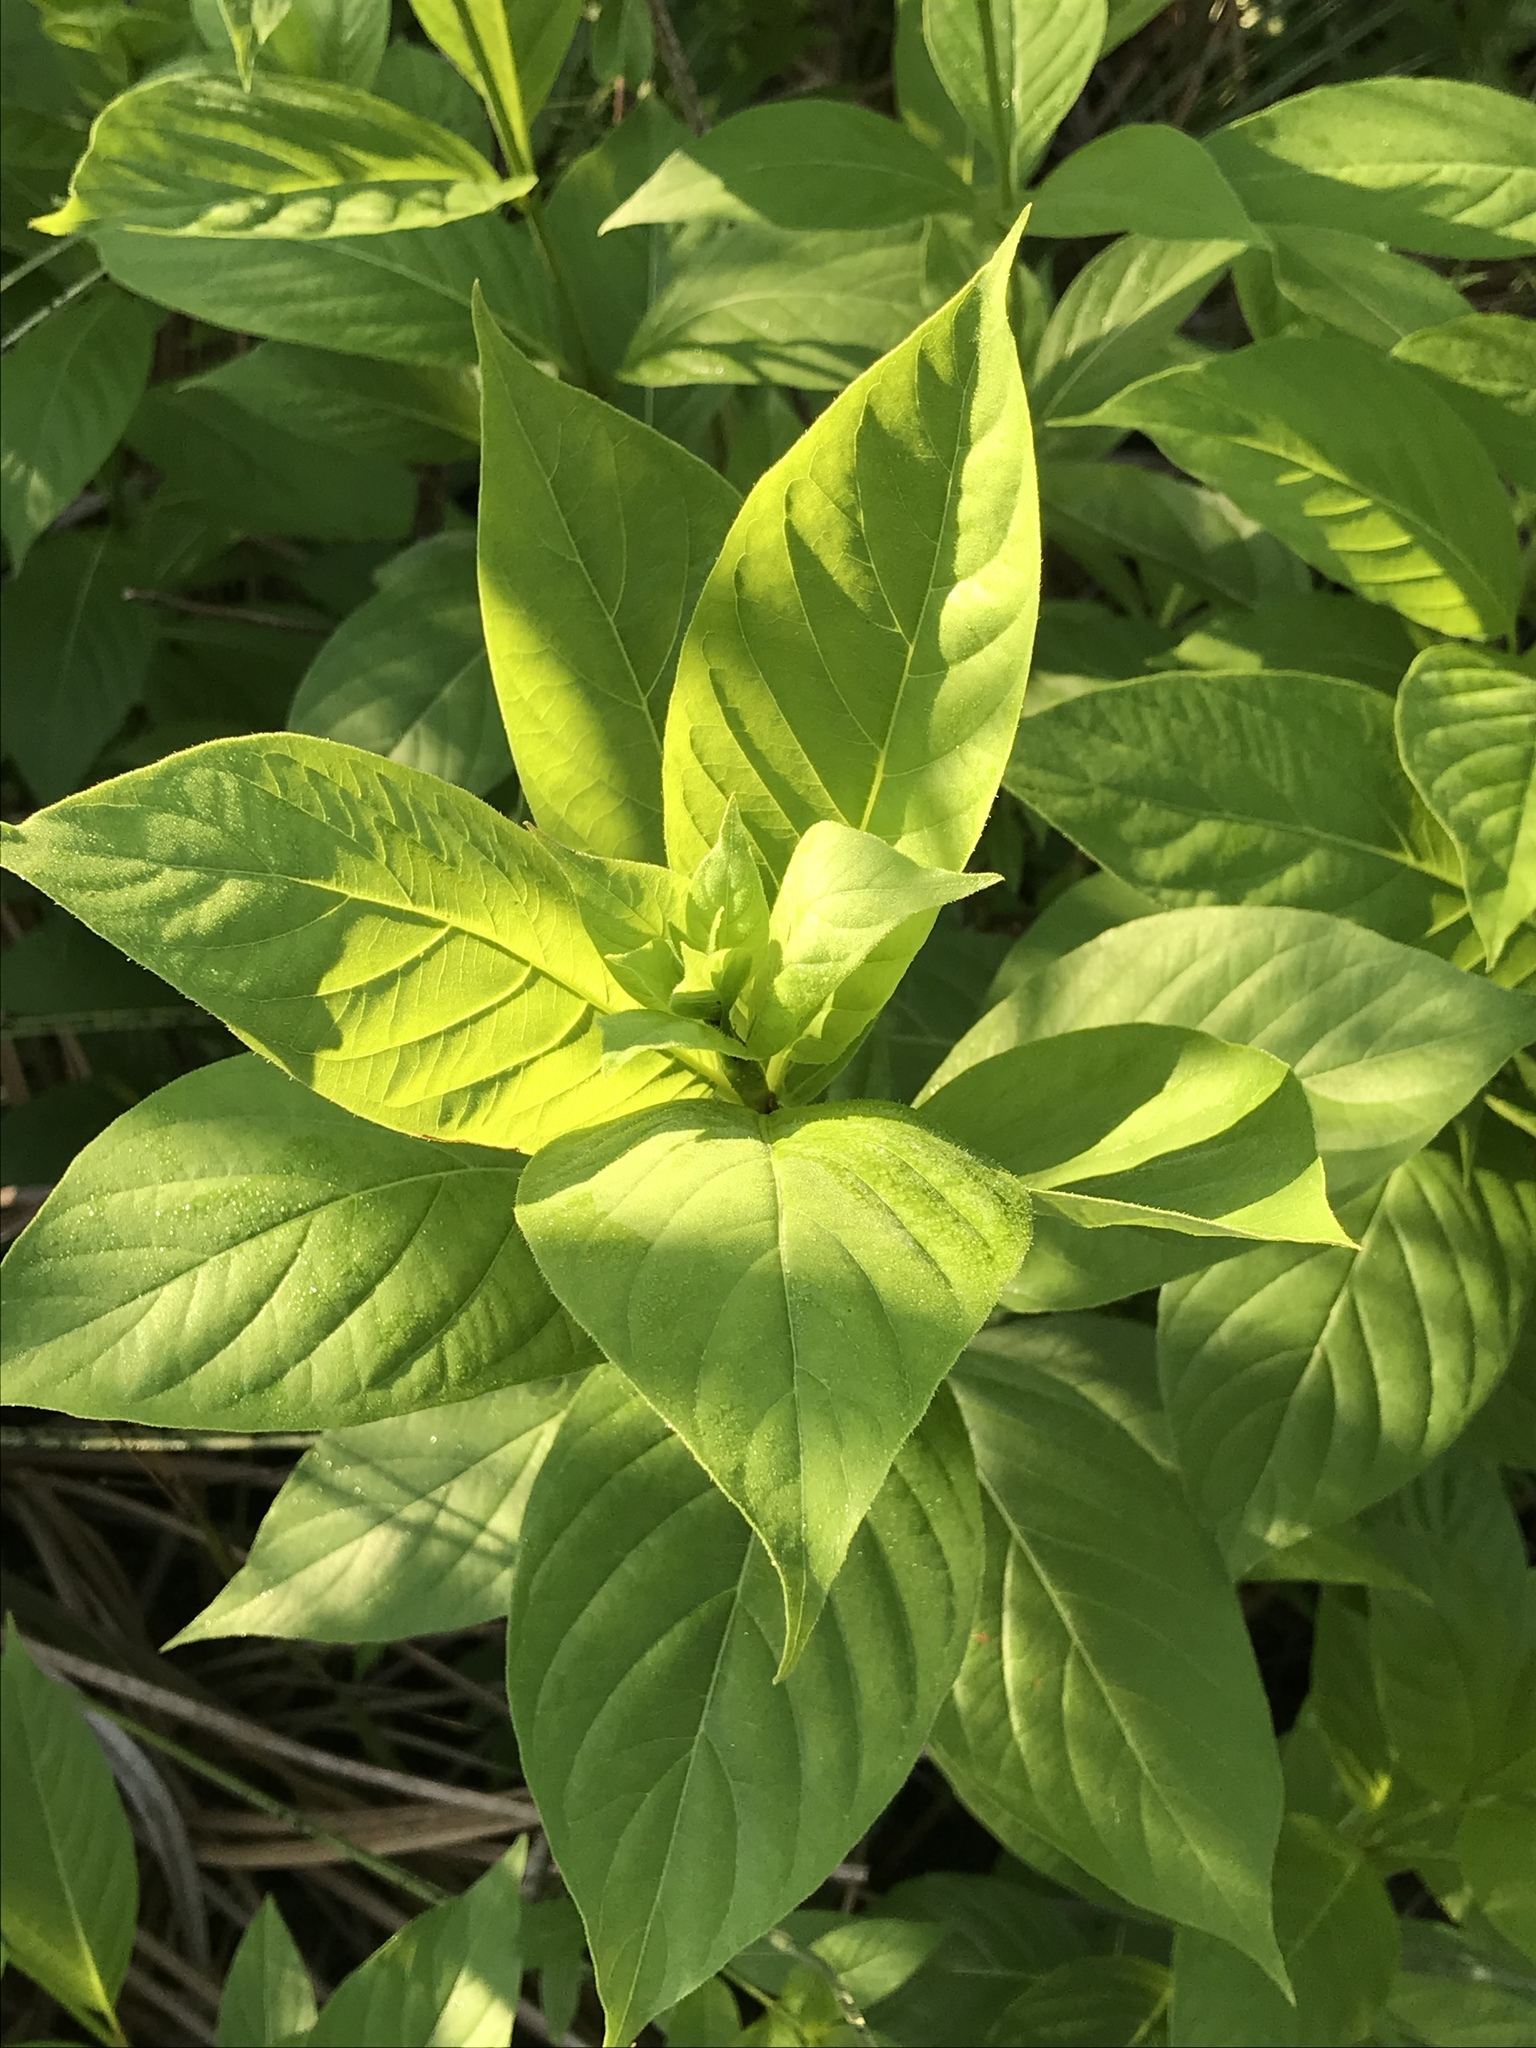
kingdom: Plantae
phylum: Tracheophyta
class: Magnoliopsida
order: Gentianales
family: Rubiaceae
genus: Cephalanthus
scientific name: Cephalanthus occidentalis
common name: Button-willow
